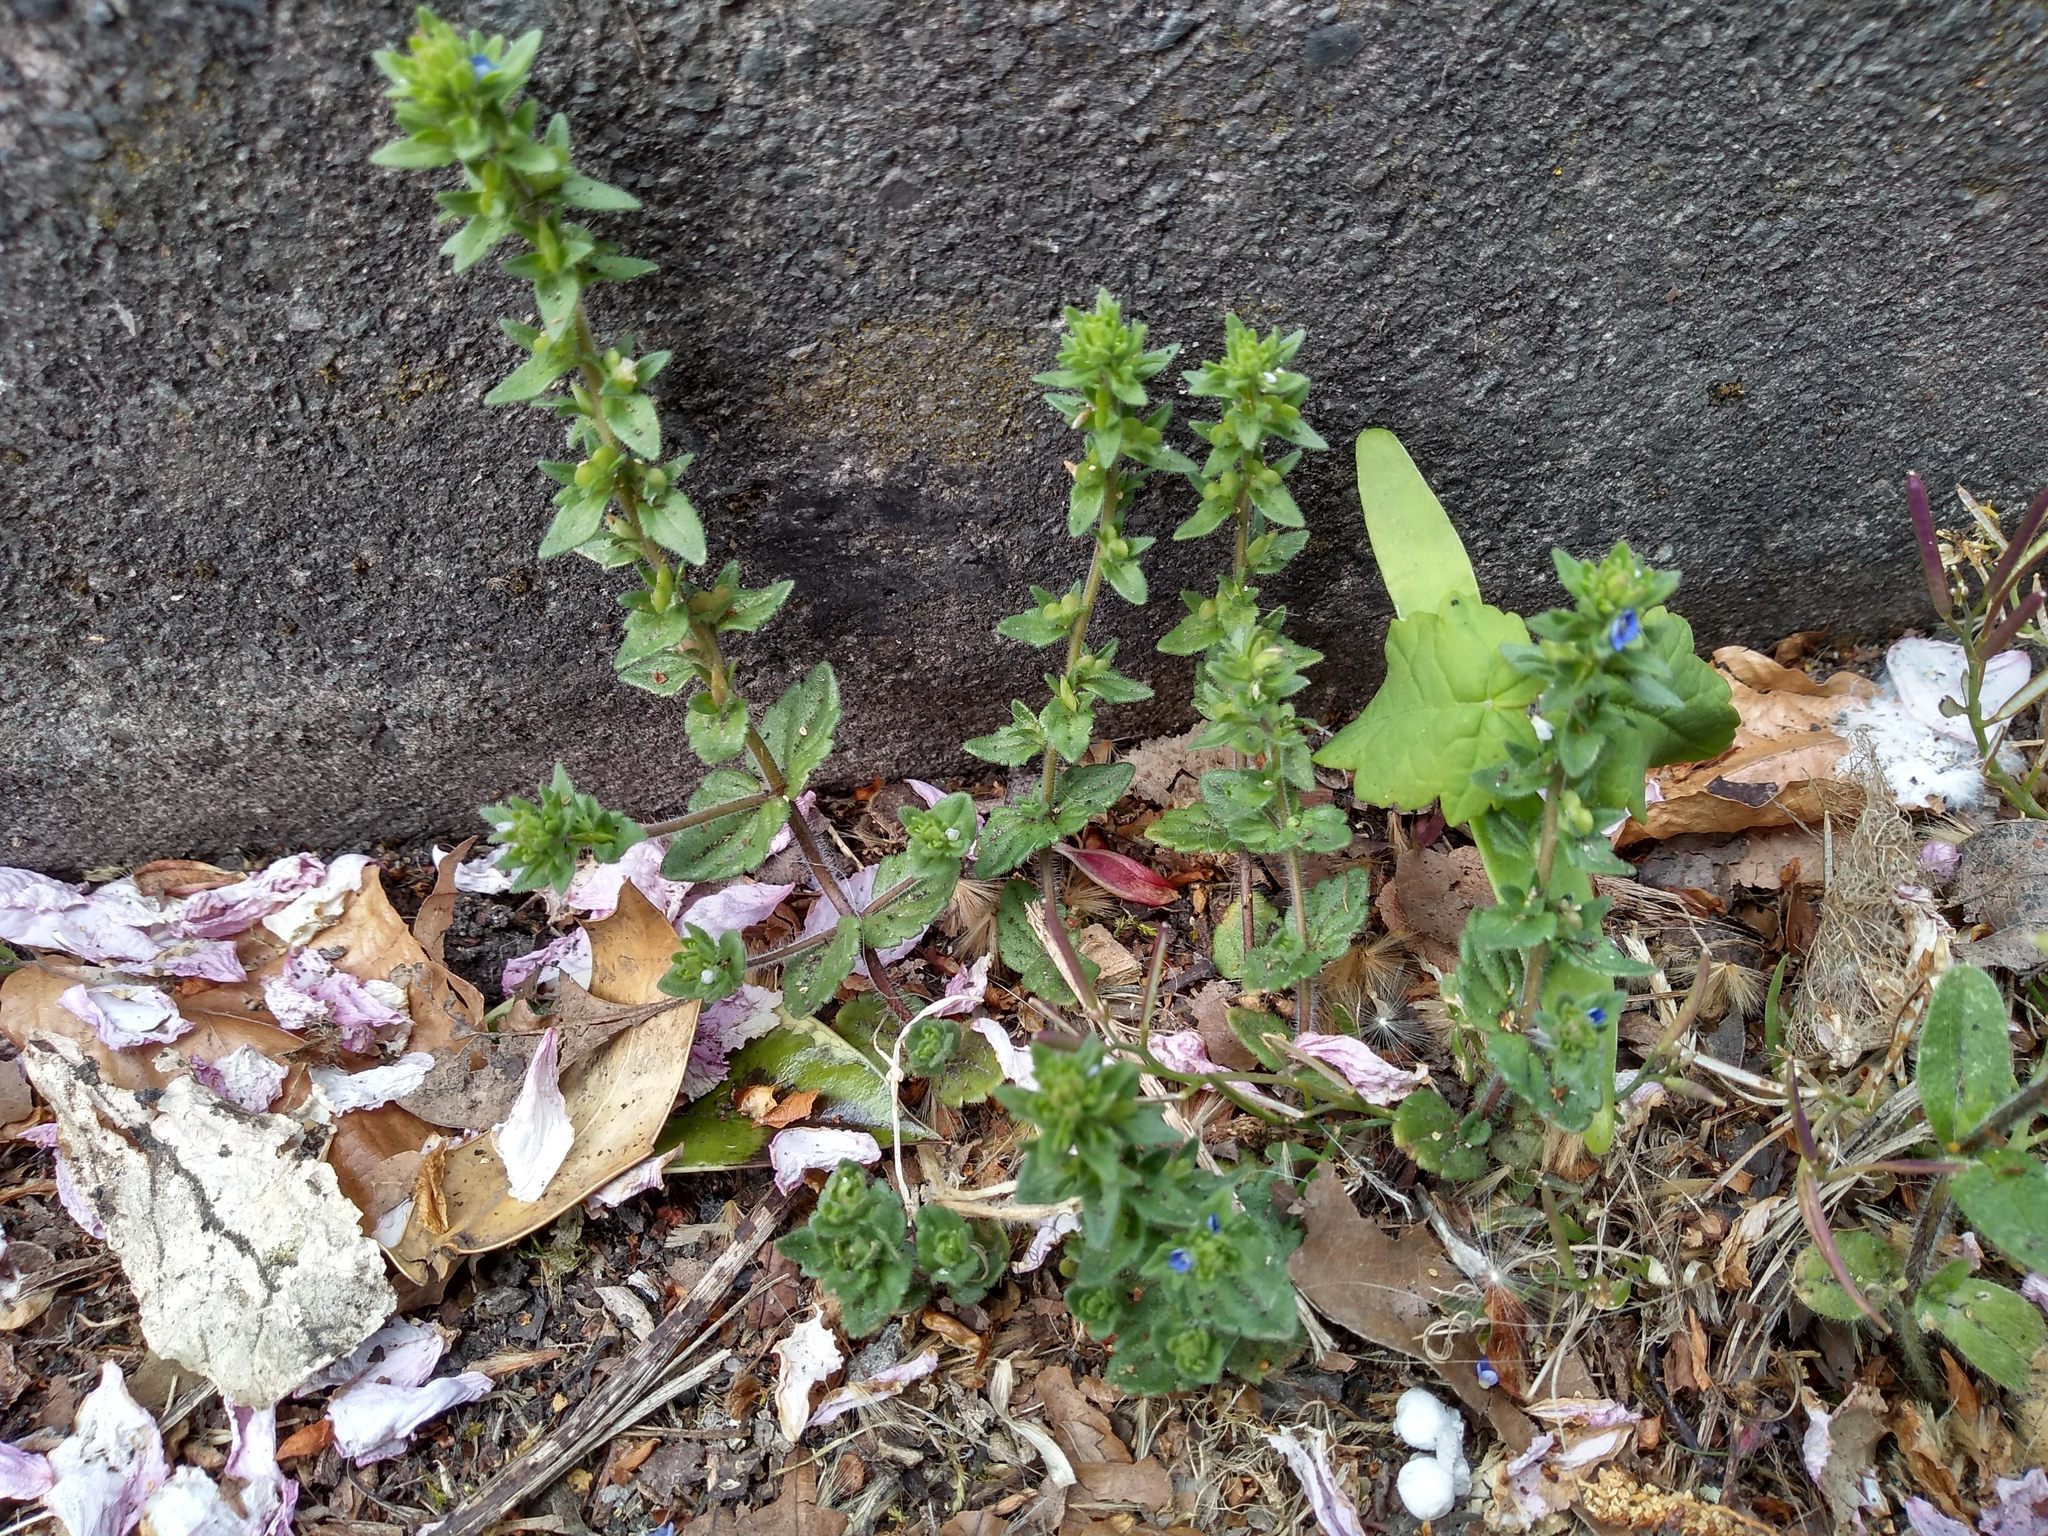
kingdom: Plantae
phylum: Tracheophyta
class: Magnoliopsida
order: Lamiales
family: Plantaginaceae
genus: Veronica
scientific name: Veronica arvensis
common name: Corn speedwell
